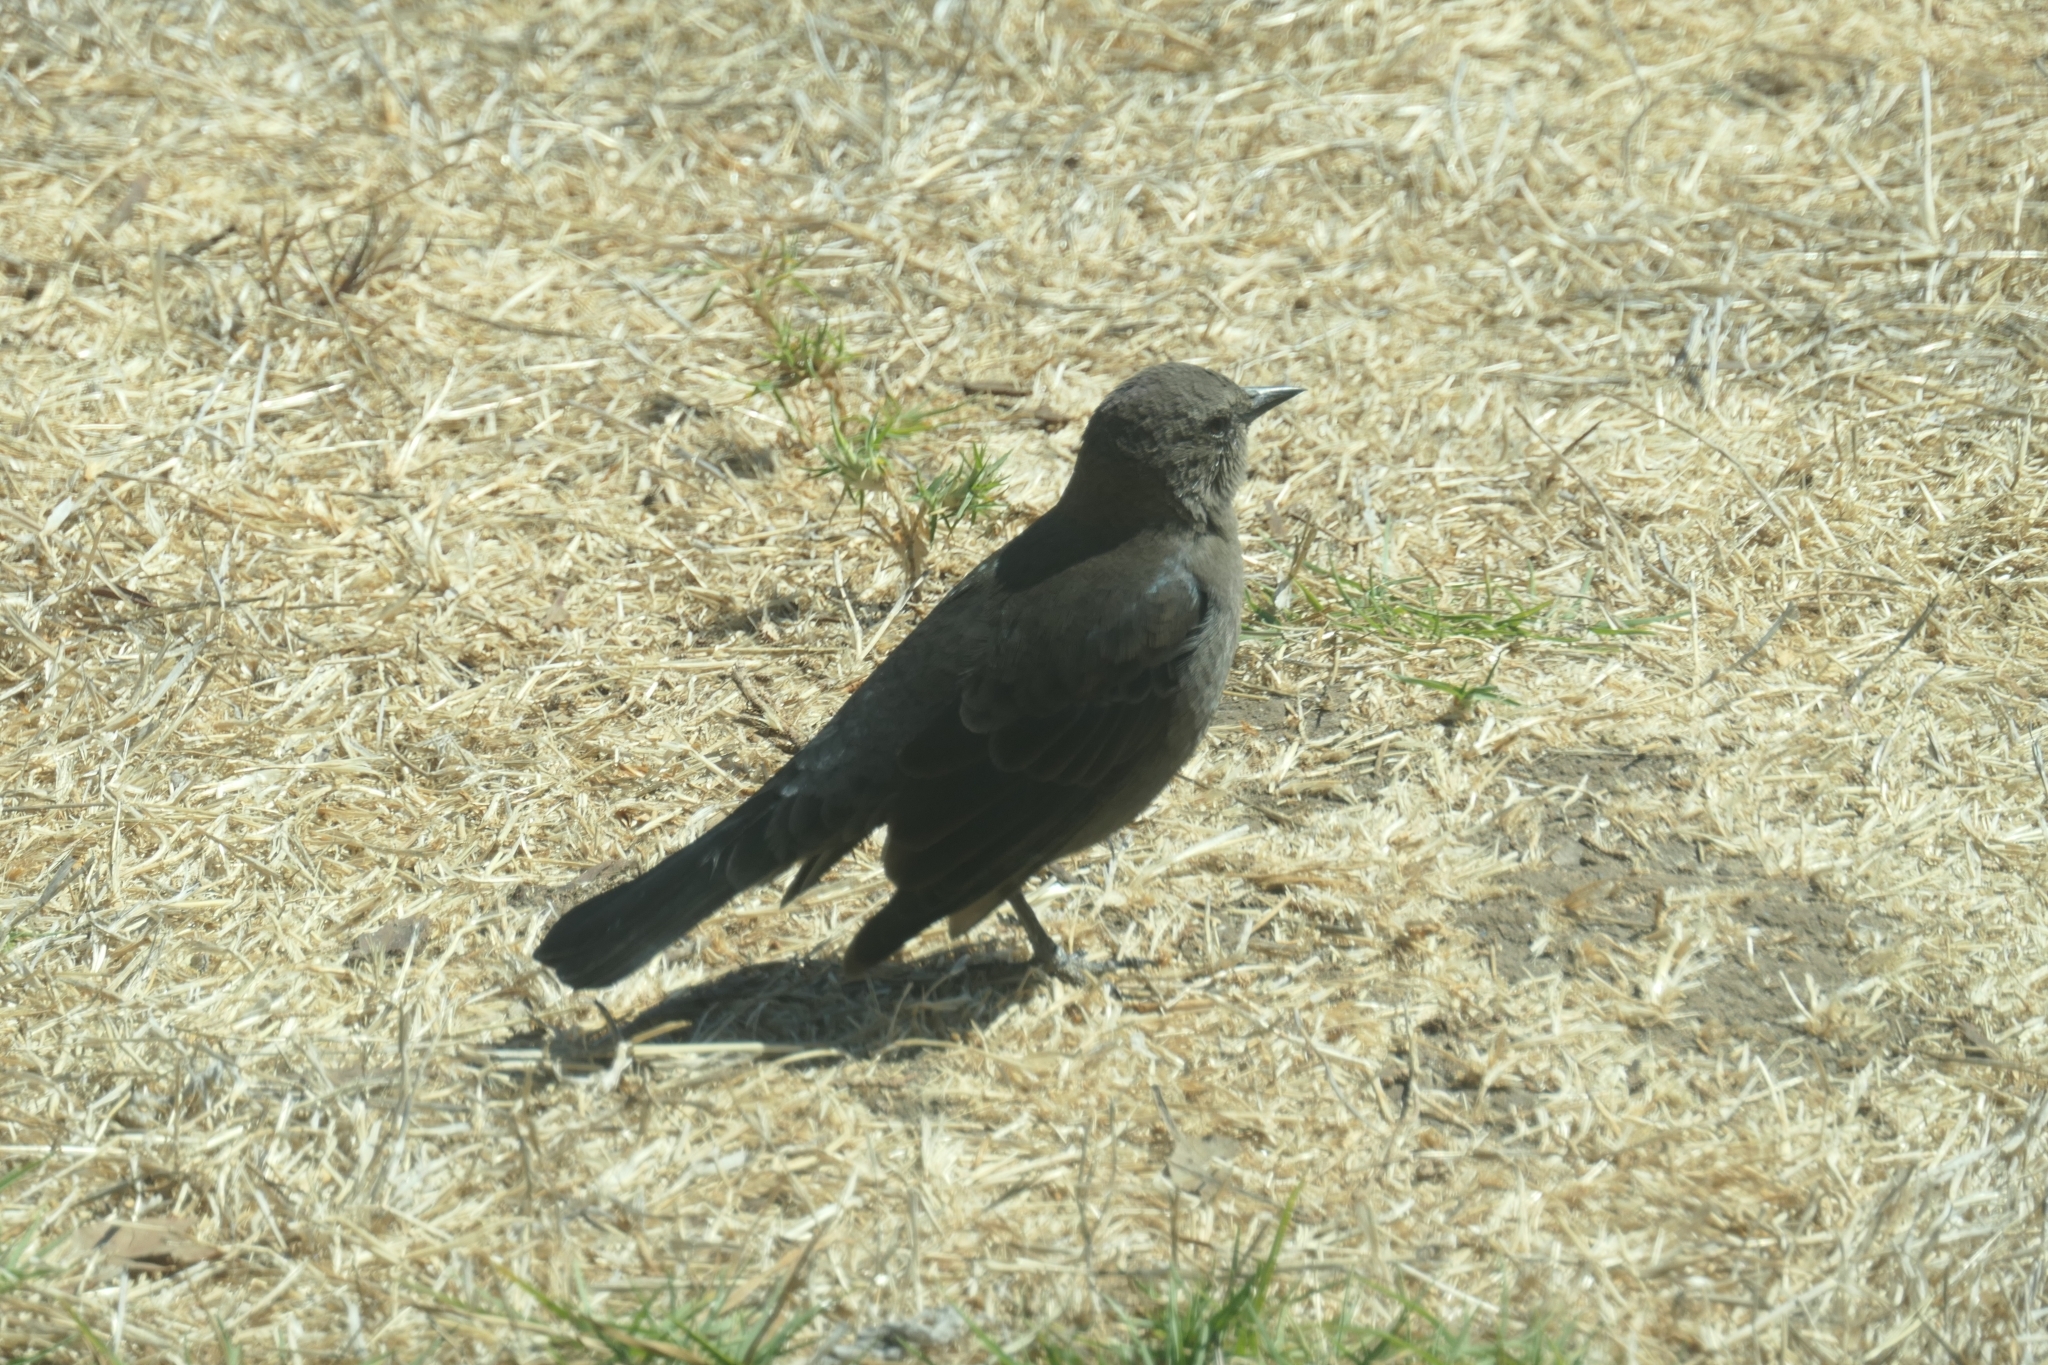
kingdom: Animalia
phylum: Chordata
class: Aves
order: Passeriformes
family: Icteridae
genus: Euphagus
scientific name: Euphagus cyanocephalus
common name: Brewer's blackbird
